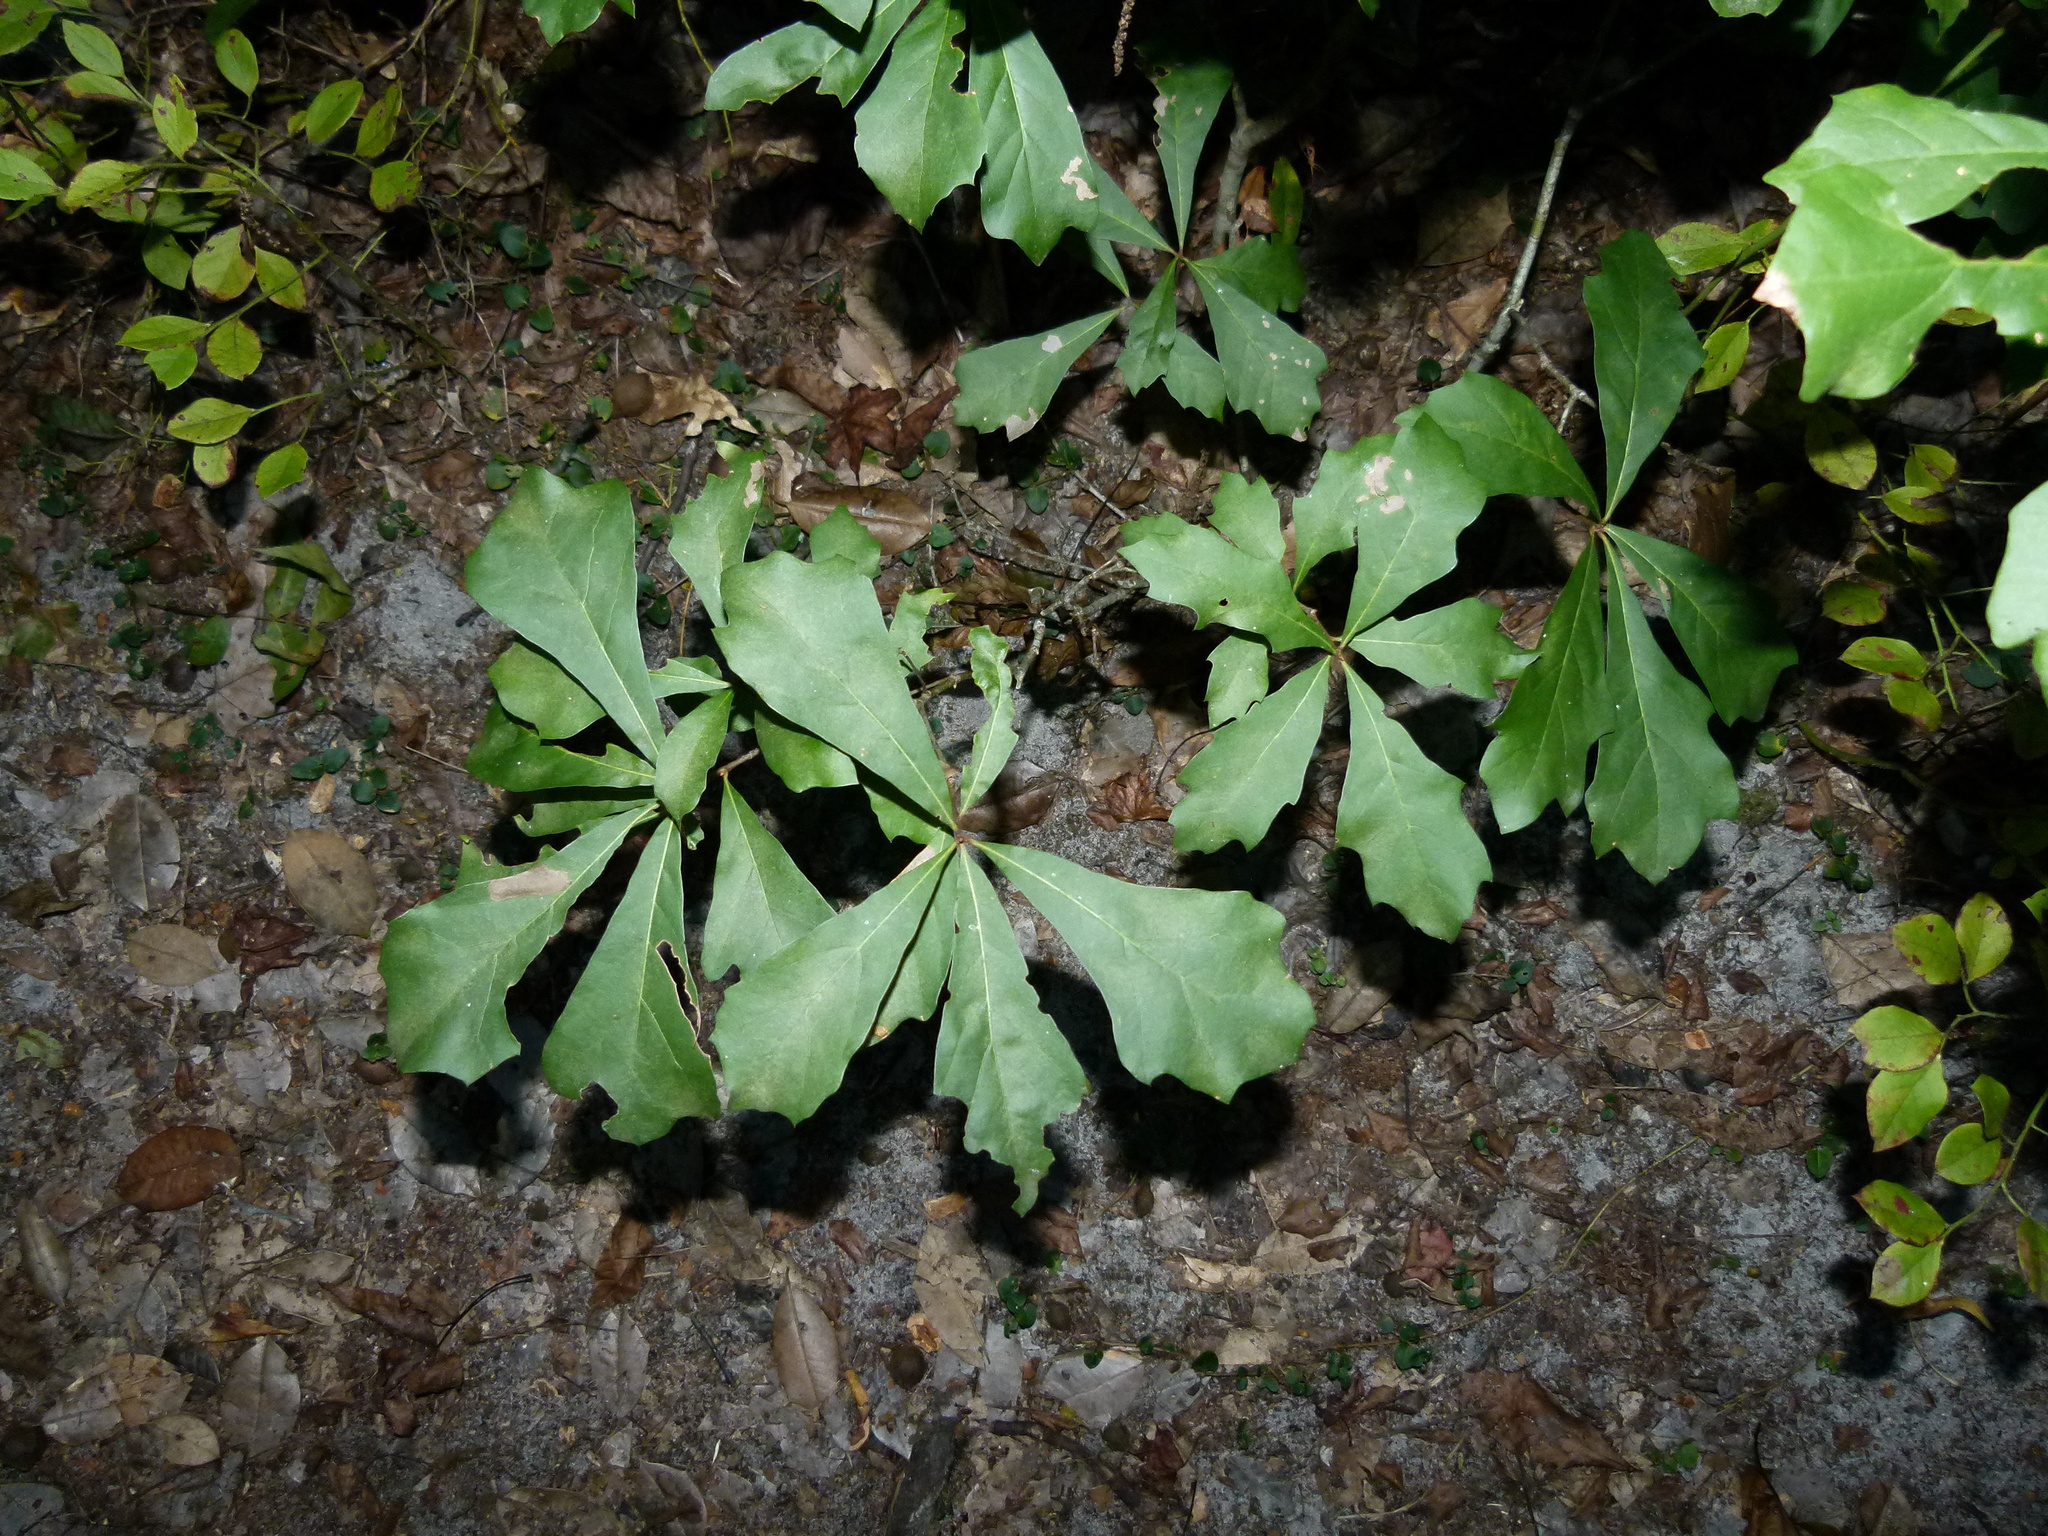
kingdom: Plantae
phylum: Tracheophyta
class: Magnoliopsida
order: Fagales
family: Fagaceae
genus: Quercus
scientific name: Quercus nigra
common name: Water oak
